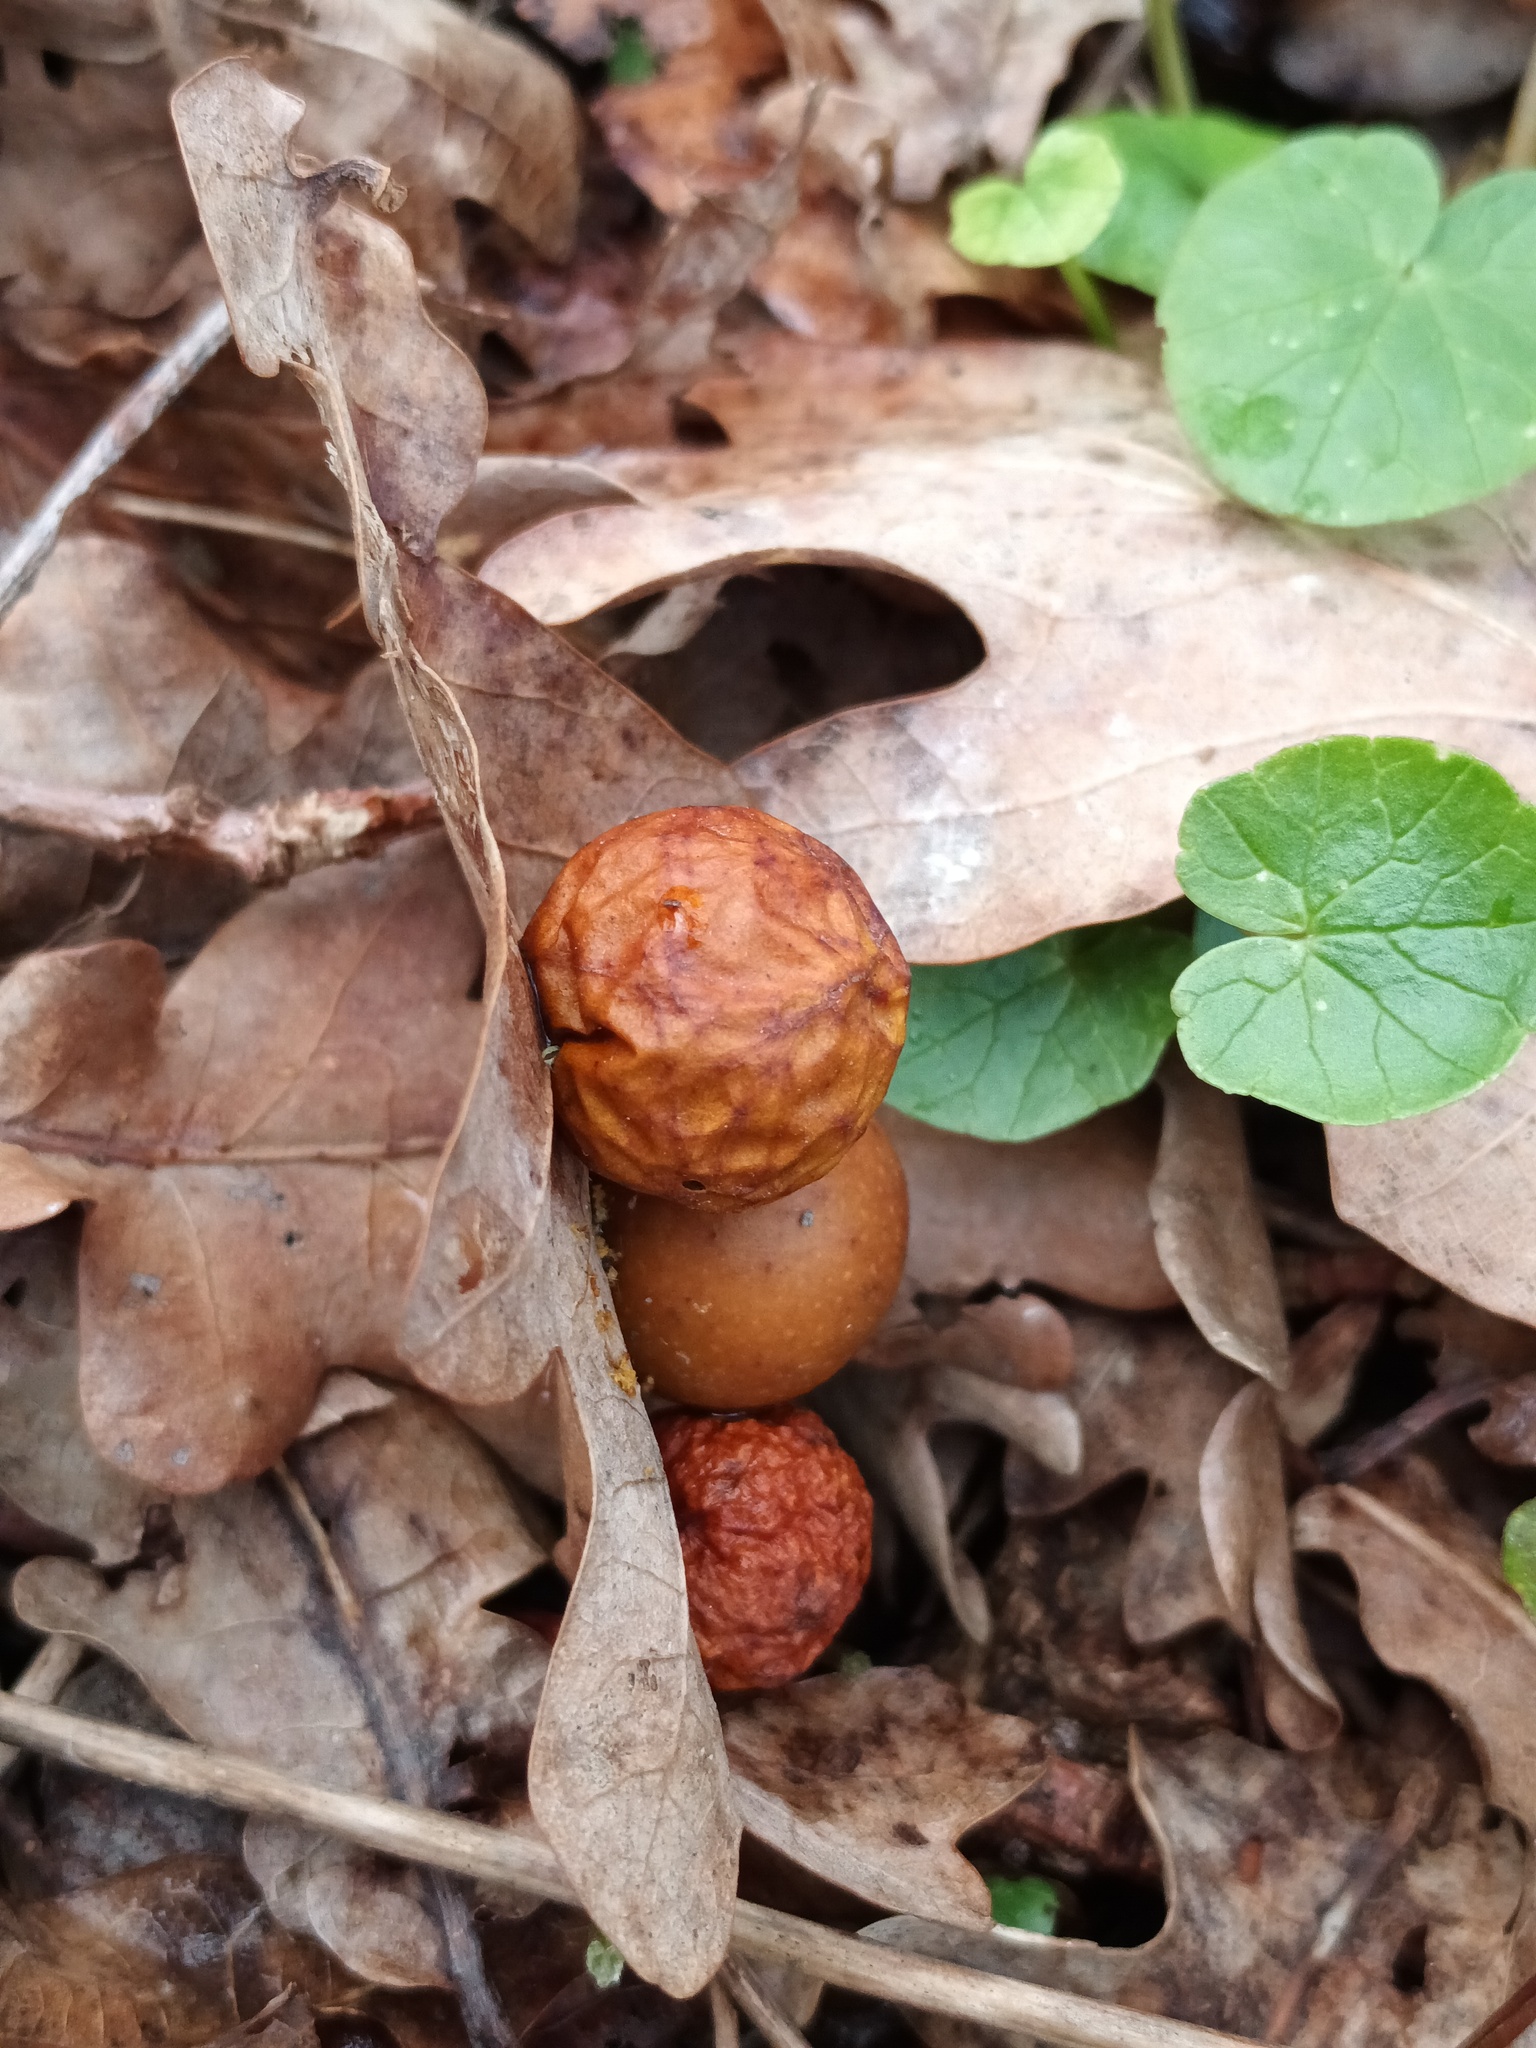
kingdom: Animalia
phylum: Arthropoda
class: Insecta
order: Hymenoptera
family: Cynipidae
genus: Cynips
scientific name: Cynips quercusfolii
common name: Cherry gall
